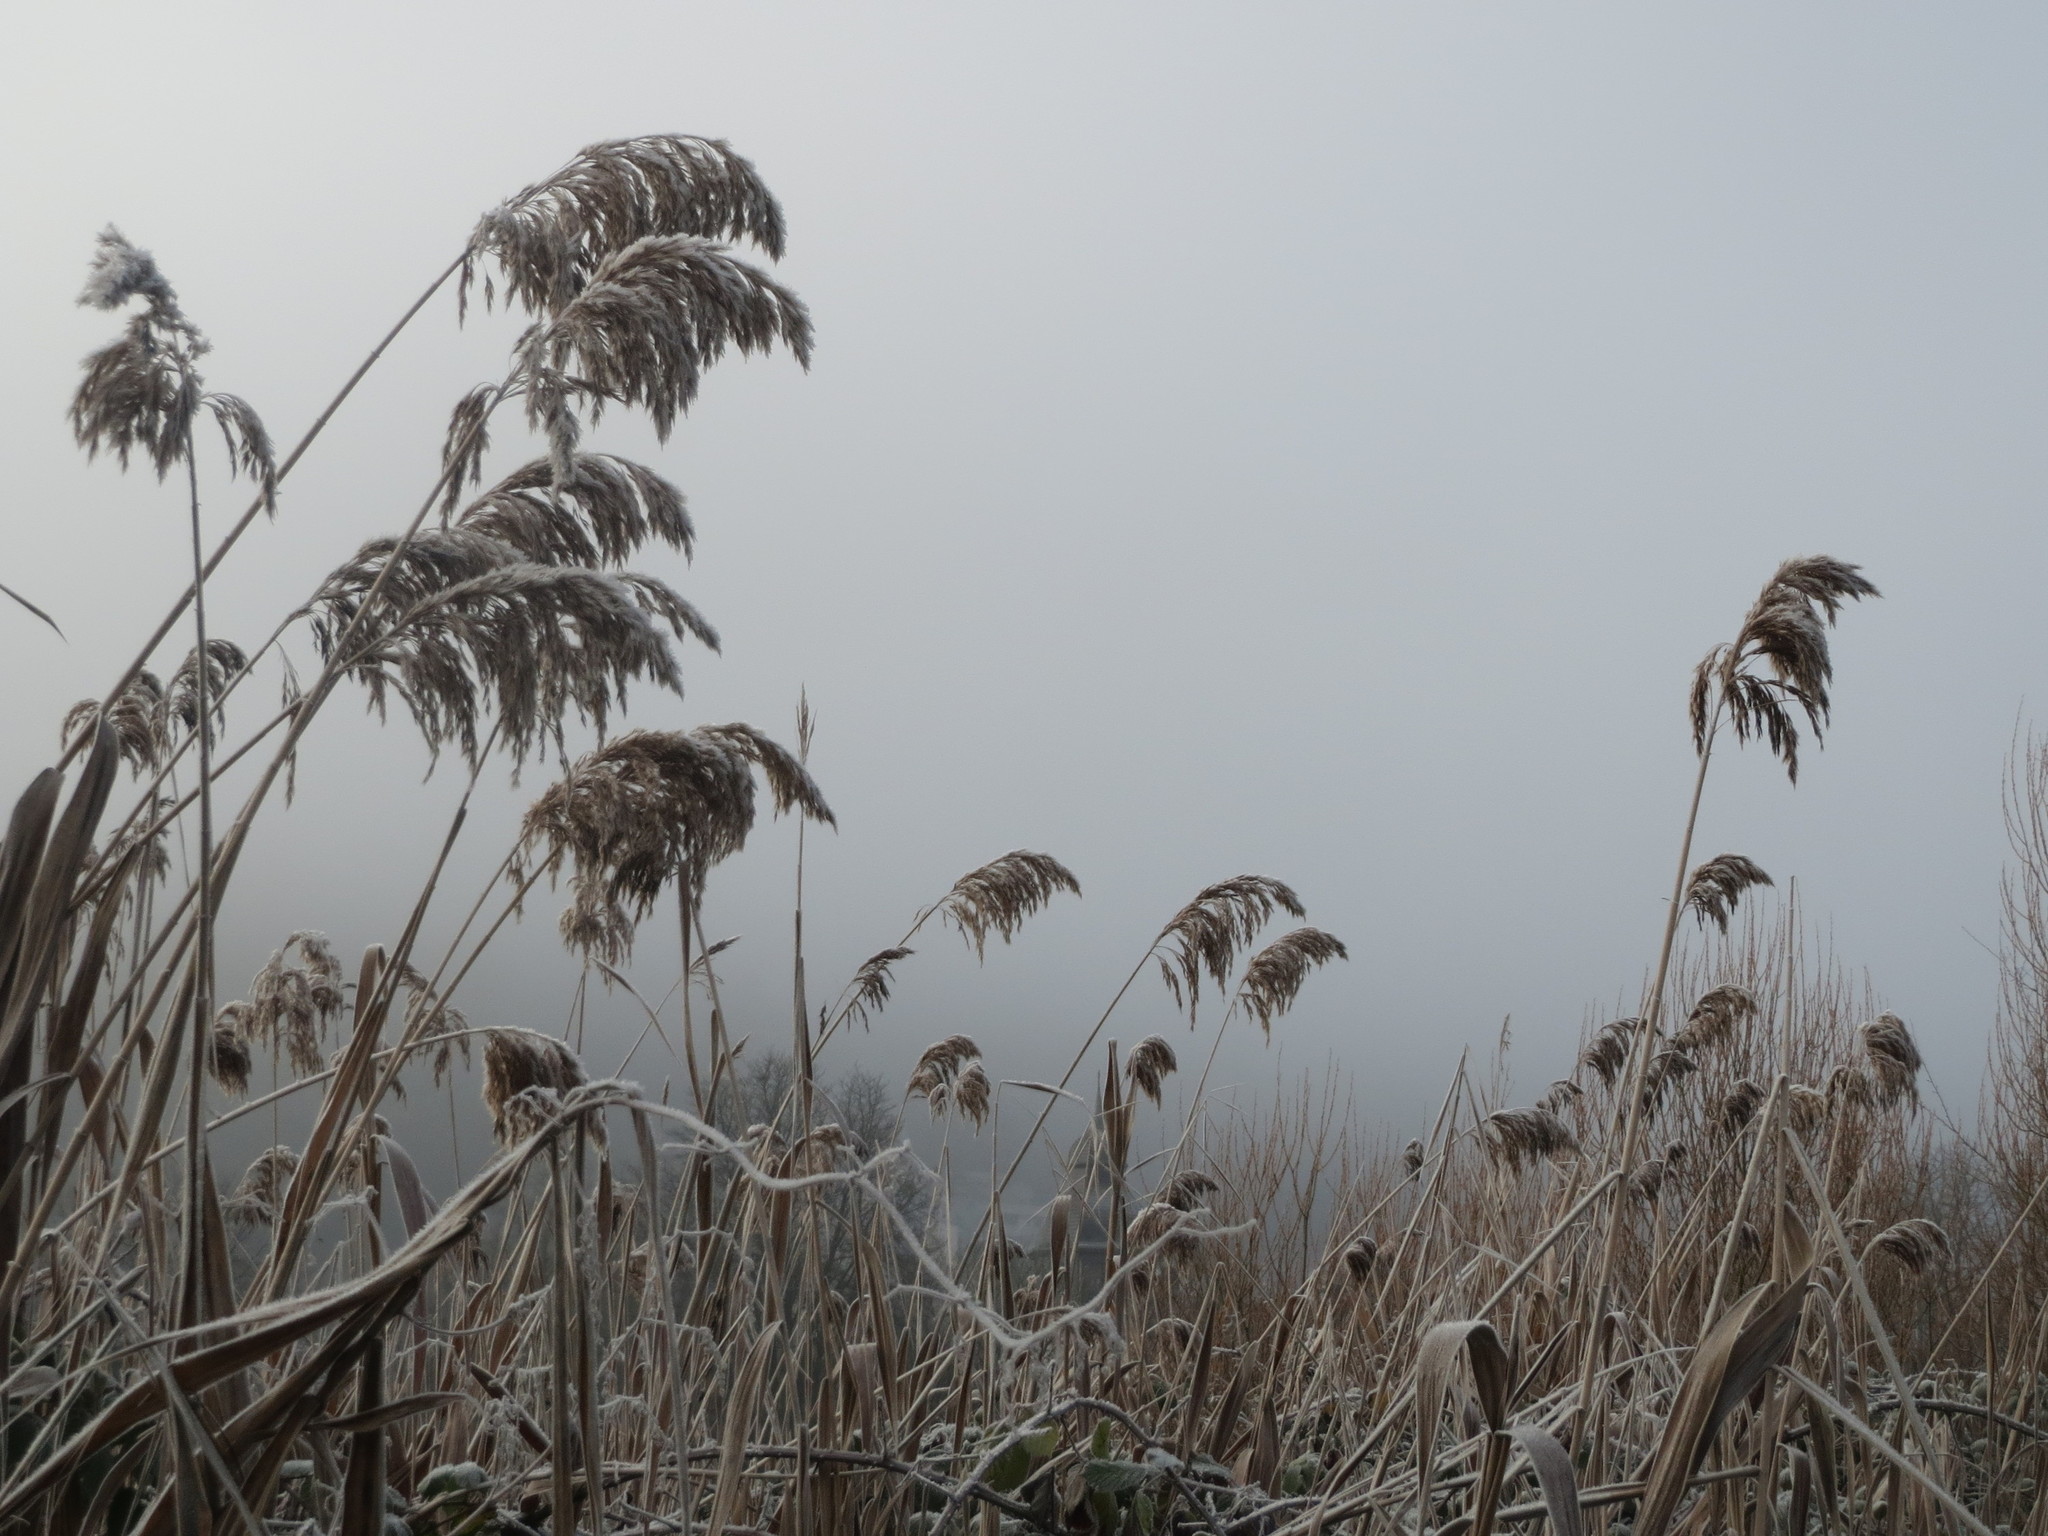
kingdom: Plantae
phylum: Tracheophyta
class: Liliopsida
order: Poales
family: Poaceae
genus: Phragmites
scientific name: Phragmites australis
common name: Common reed
